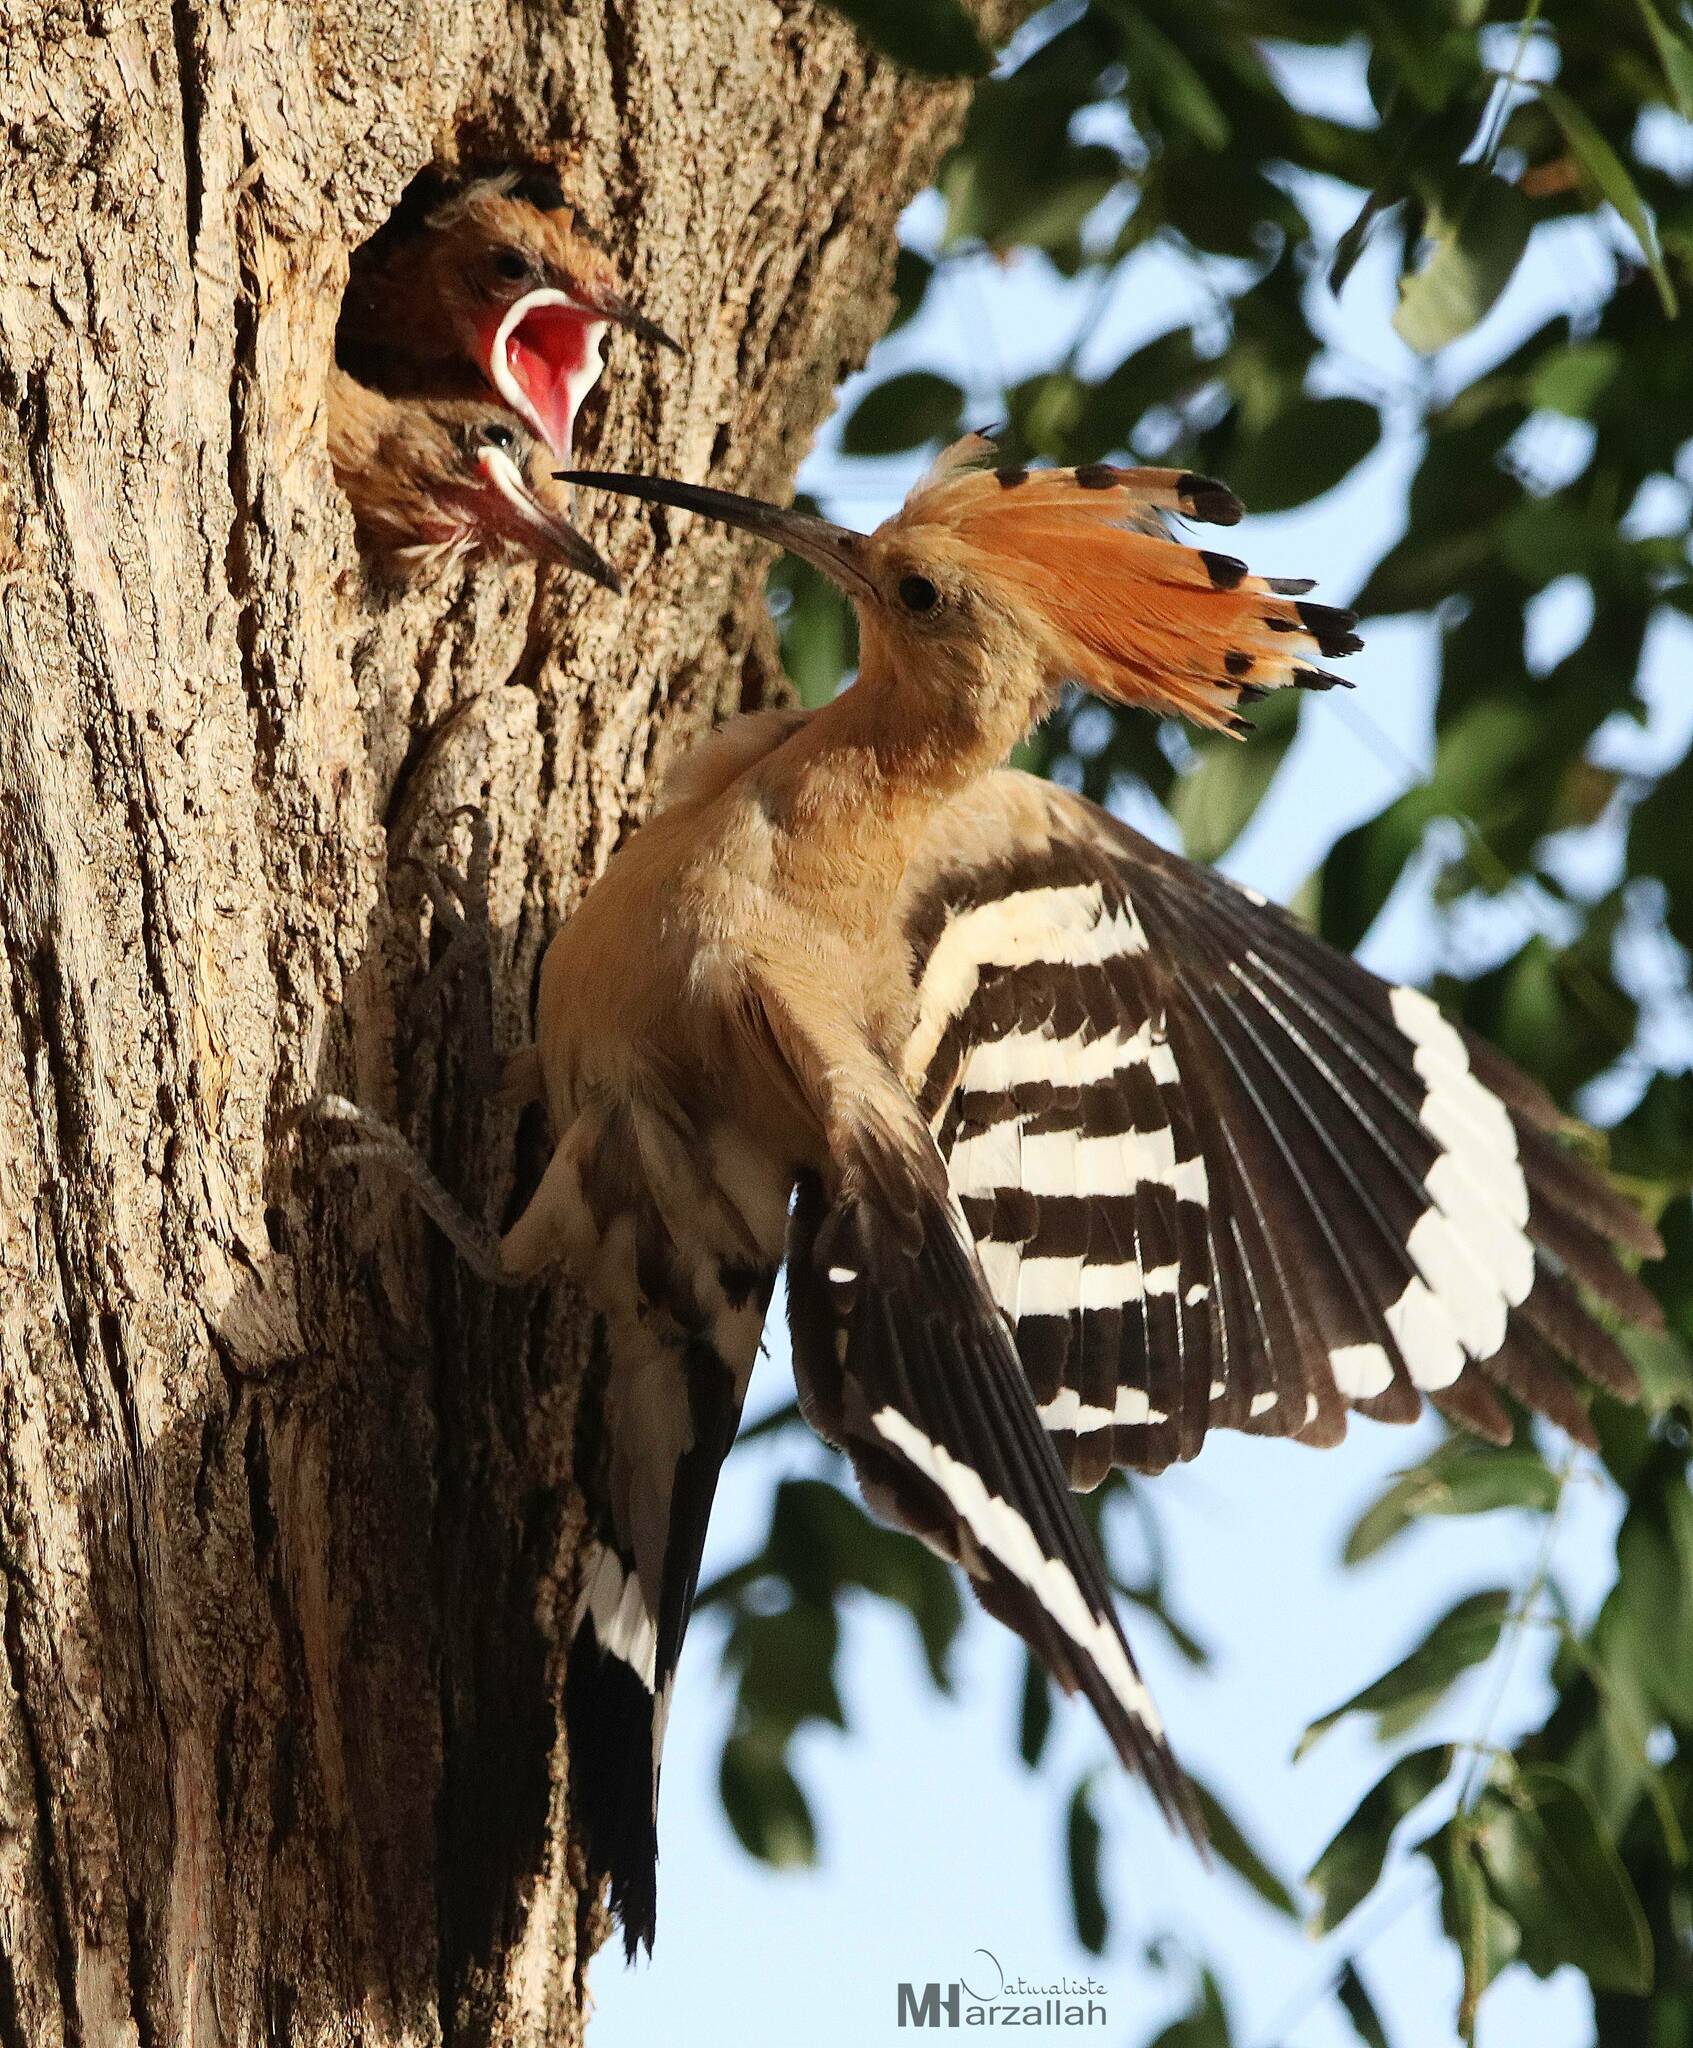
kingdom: Animalia
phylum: Chordata
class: Aves
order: Bucerotiformes
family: Upupidae
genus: Upupa
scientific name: Upupa epops
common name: Eurasian hoopoe
